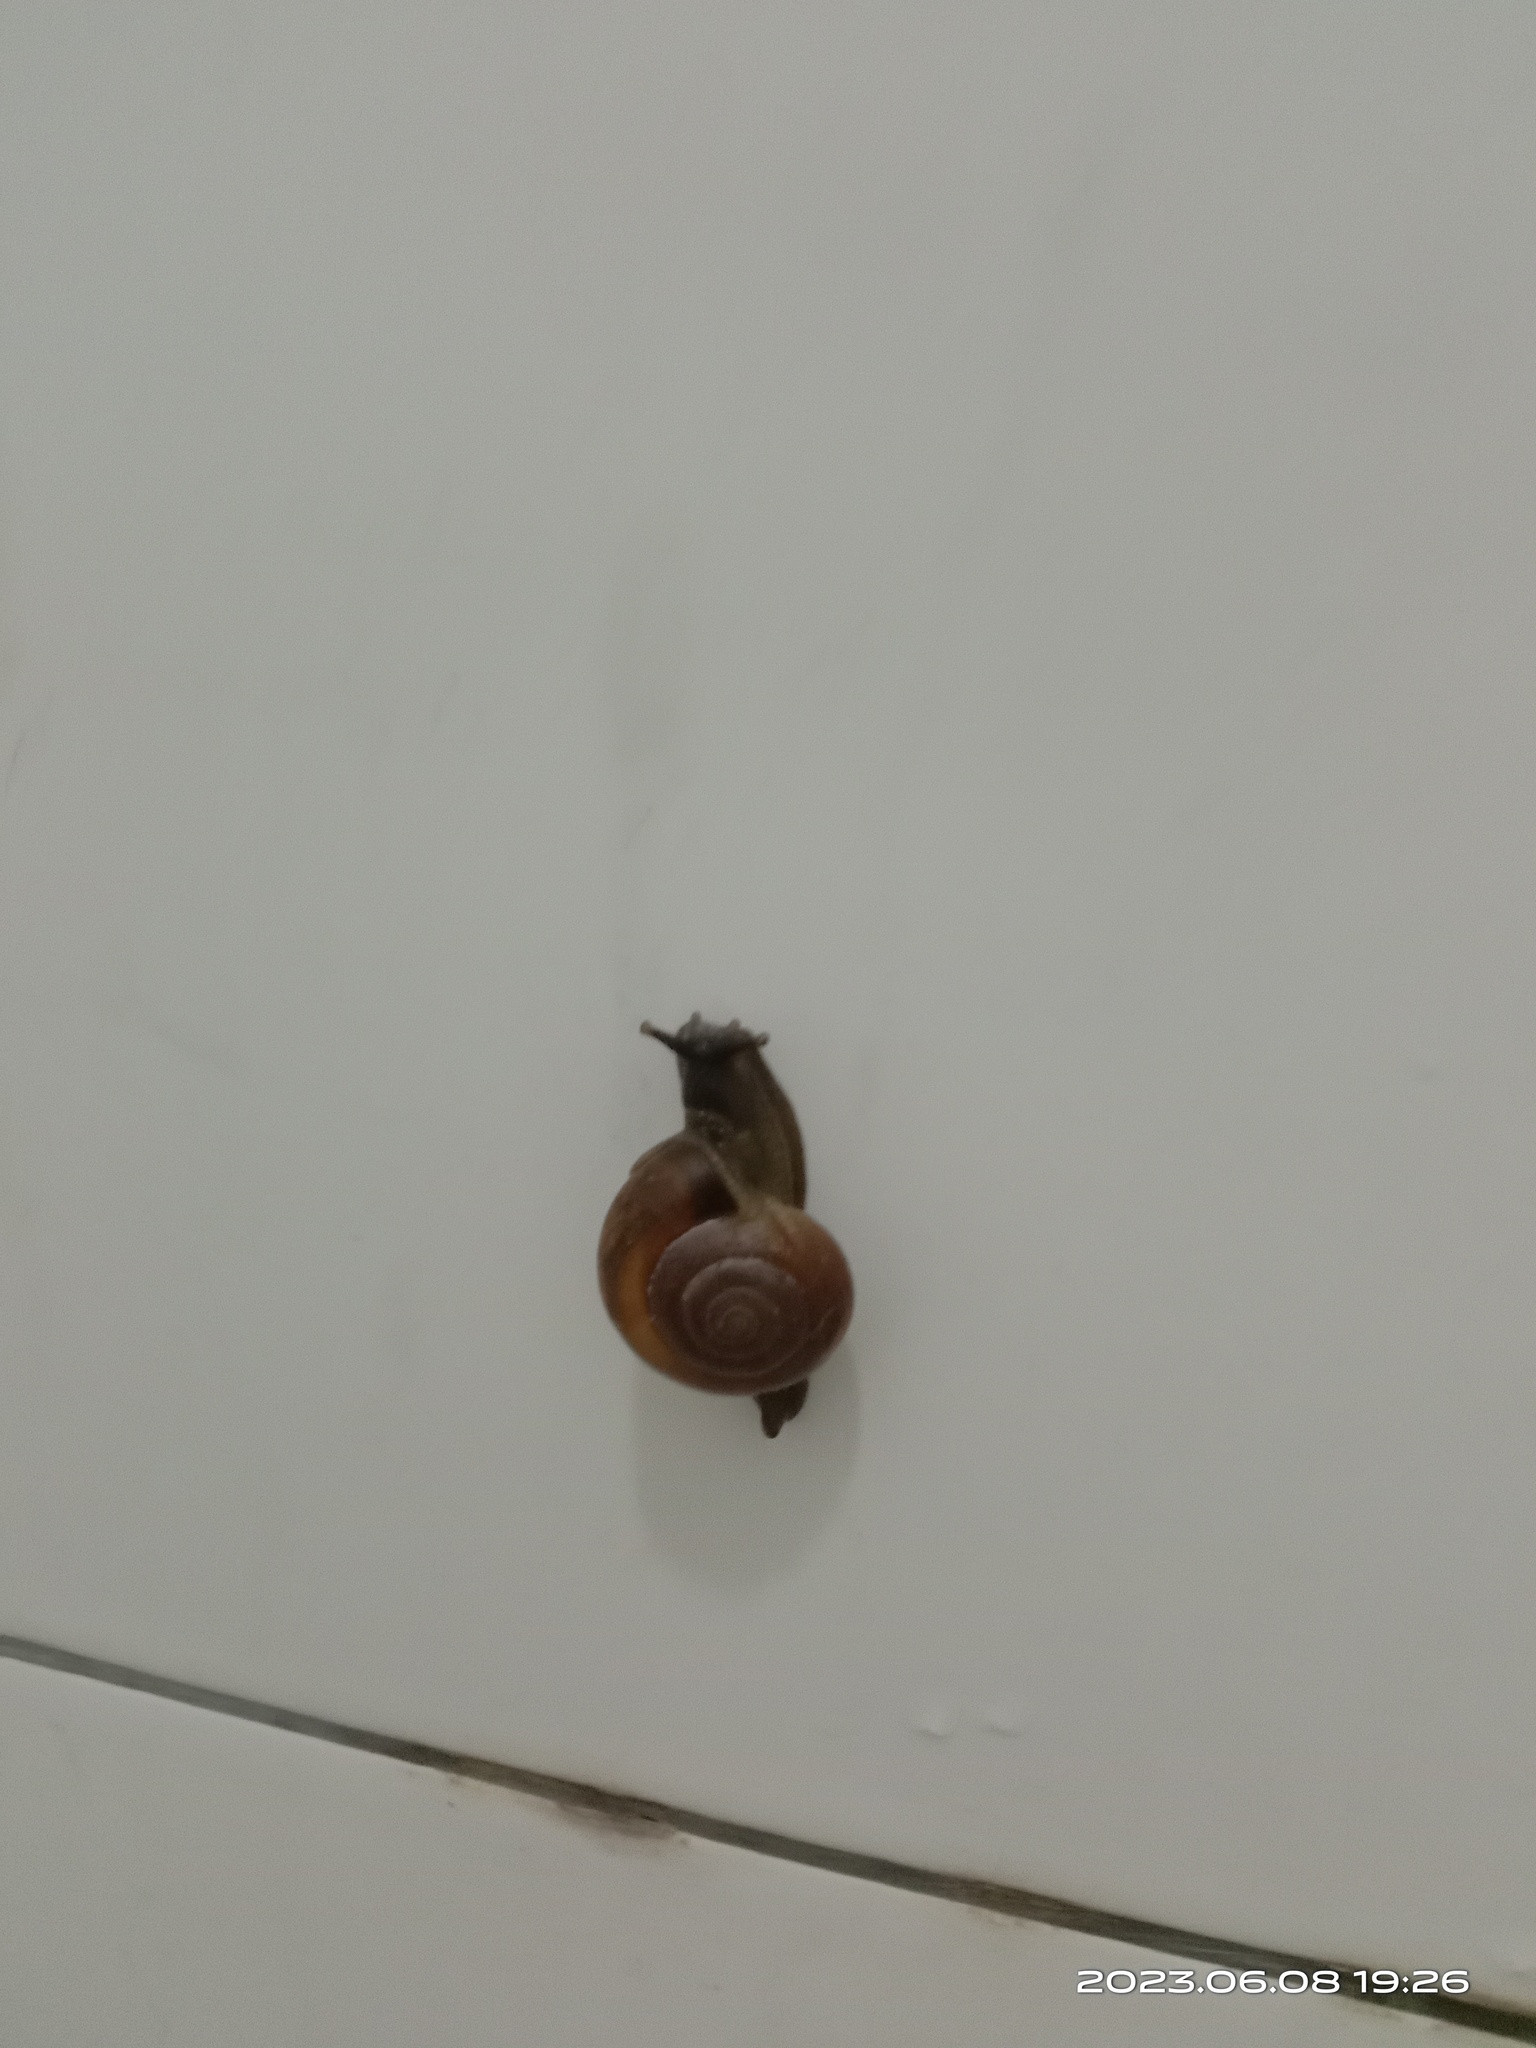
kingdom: Animalia
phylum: Mollusca
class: Gastropoda
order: Stylommatophora
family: Ariophantidae
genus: Macrochlamys
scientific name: Macrochlamys hippocastaneum
